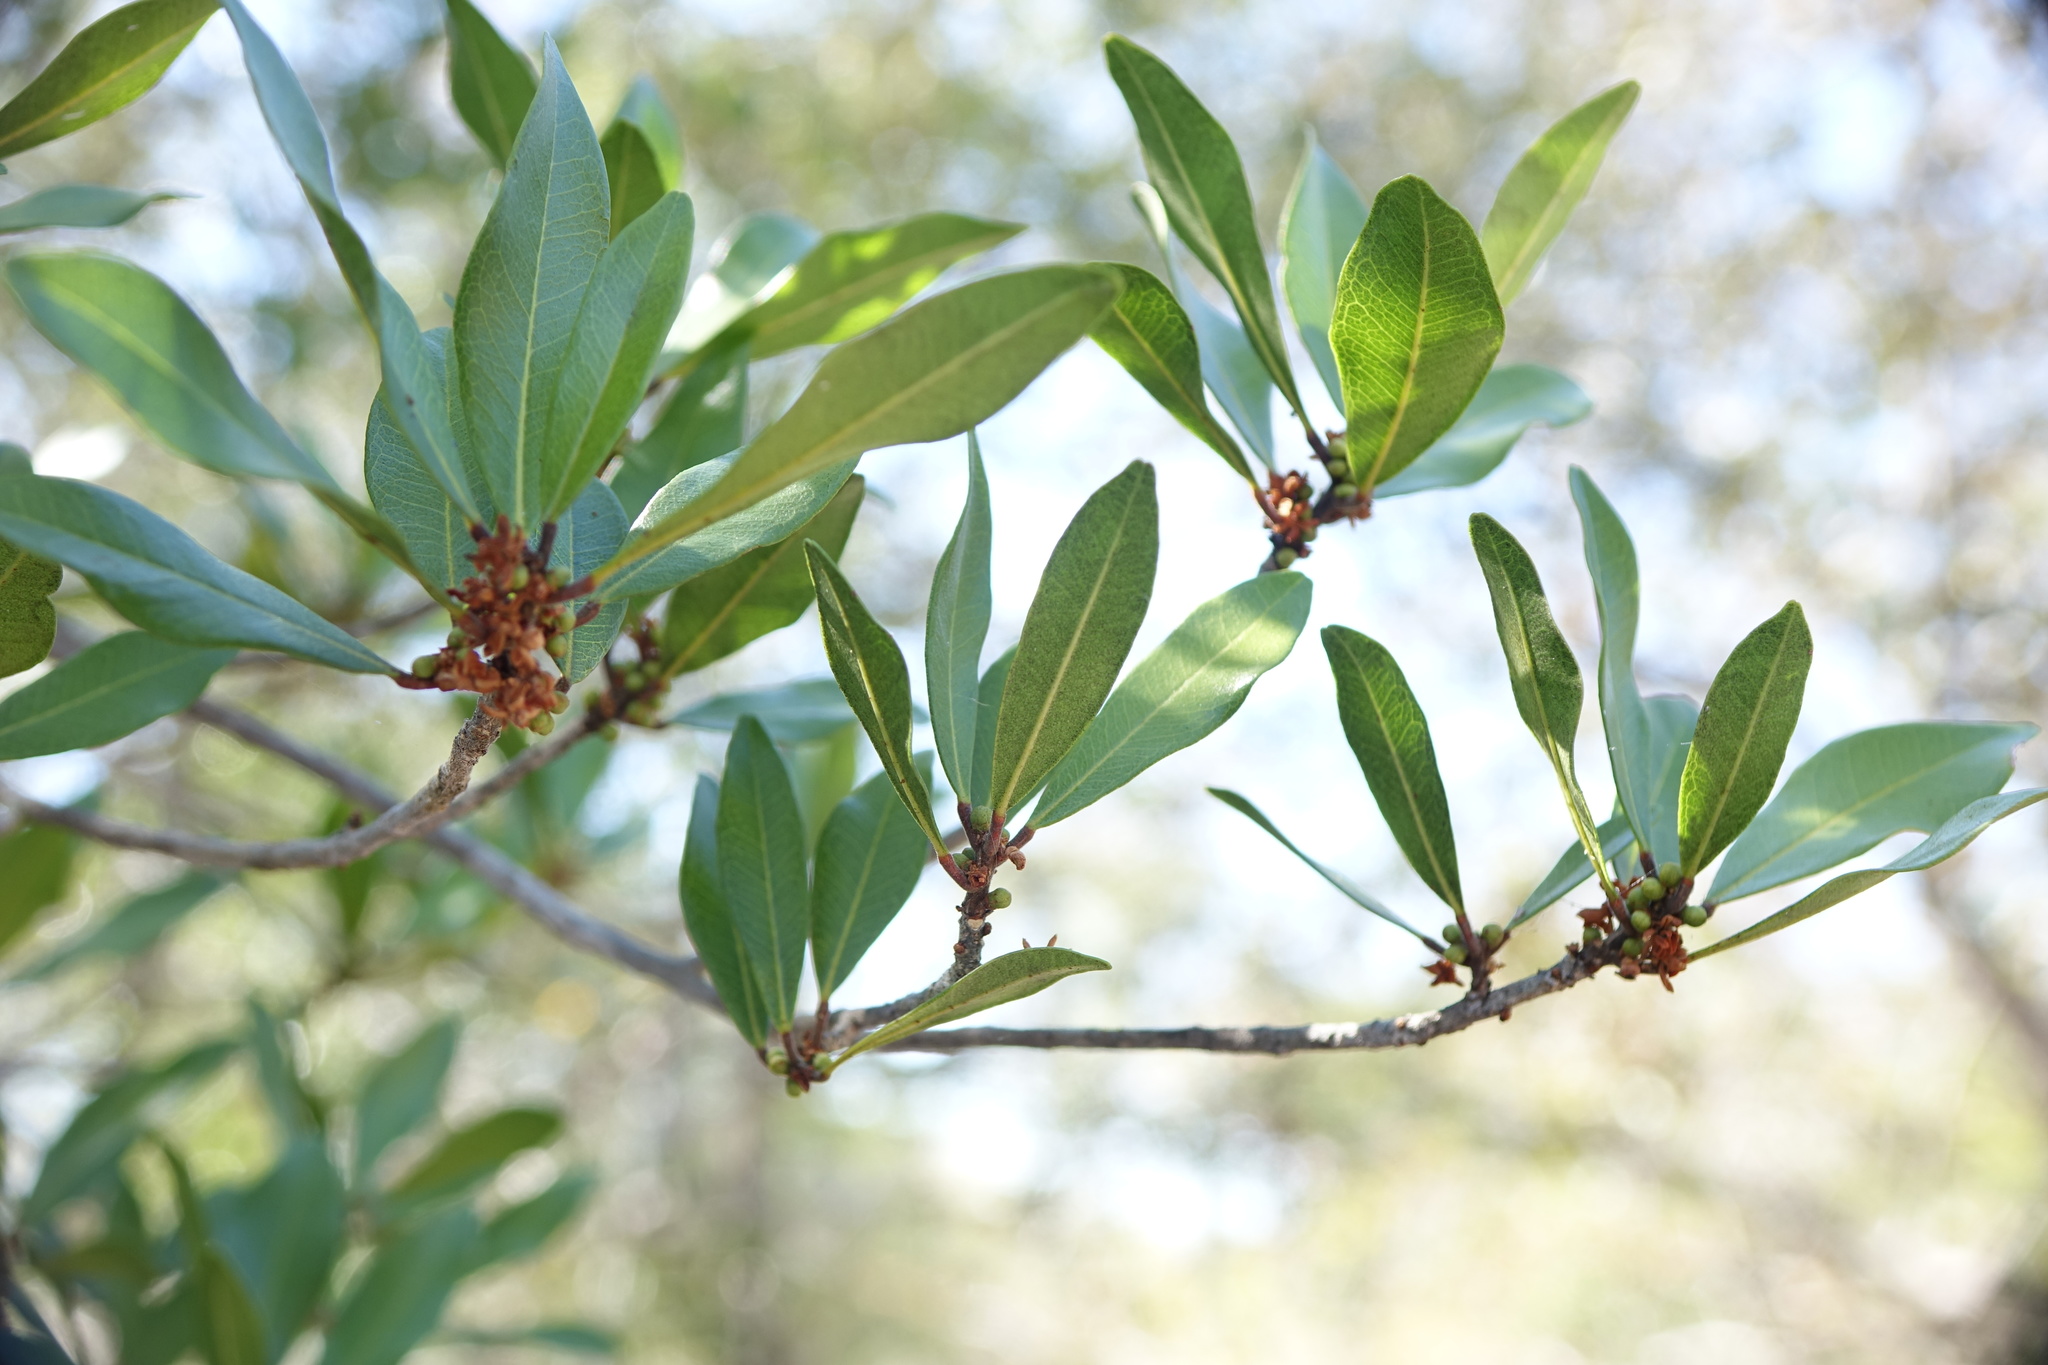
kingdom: Plantae
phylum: Tracheophyta
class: Magnoliopsida
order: Sapindales
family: Rutaceae
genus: Vepris
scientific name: Vepris arenicola
